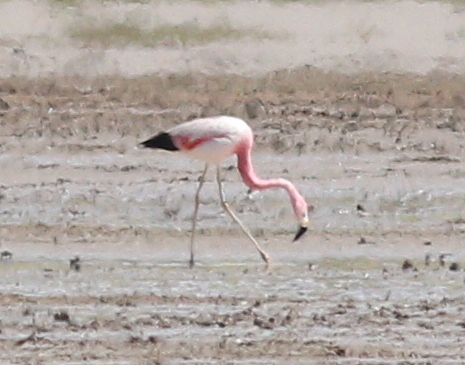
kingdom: Animalia
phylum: Chordata
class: Aves
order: Phoenicopteriformes
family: Phoenicopteridae
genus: Phoenicoparrus
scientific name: Phoenicoparrus andinus
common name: Andean flamingo
